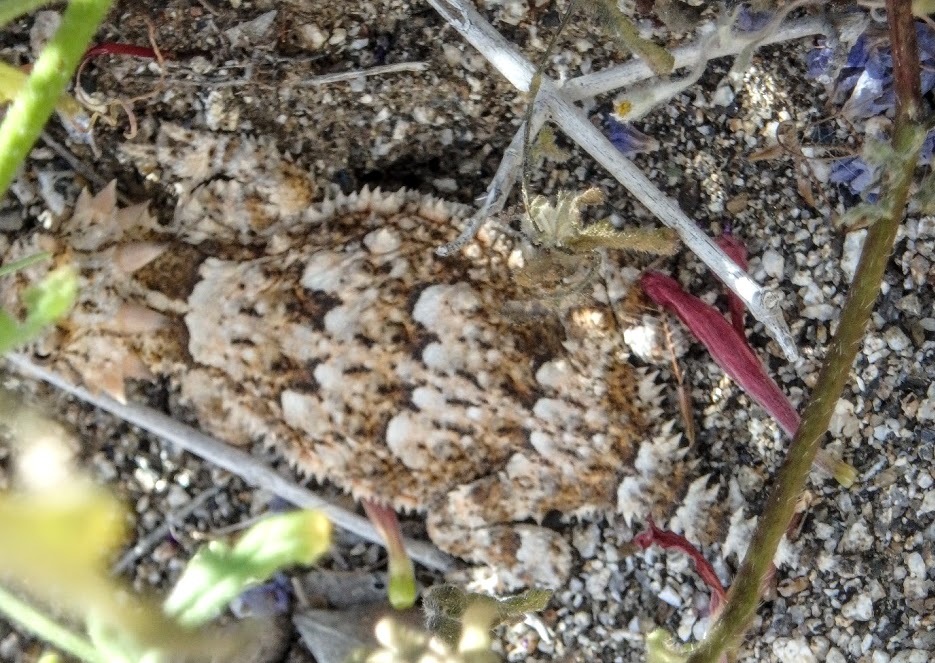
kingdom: Animalia
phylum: Chordata
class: Squamata
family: Phrynosomatidae
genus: Phrynosoma
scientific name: Phrynosoma platyrhinos
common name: Desert horned lizard
